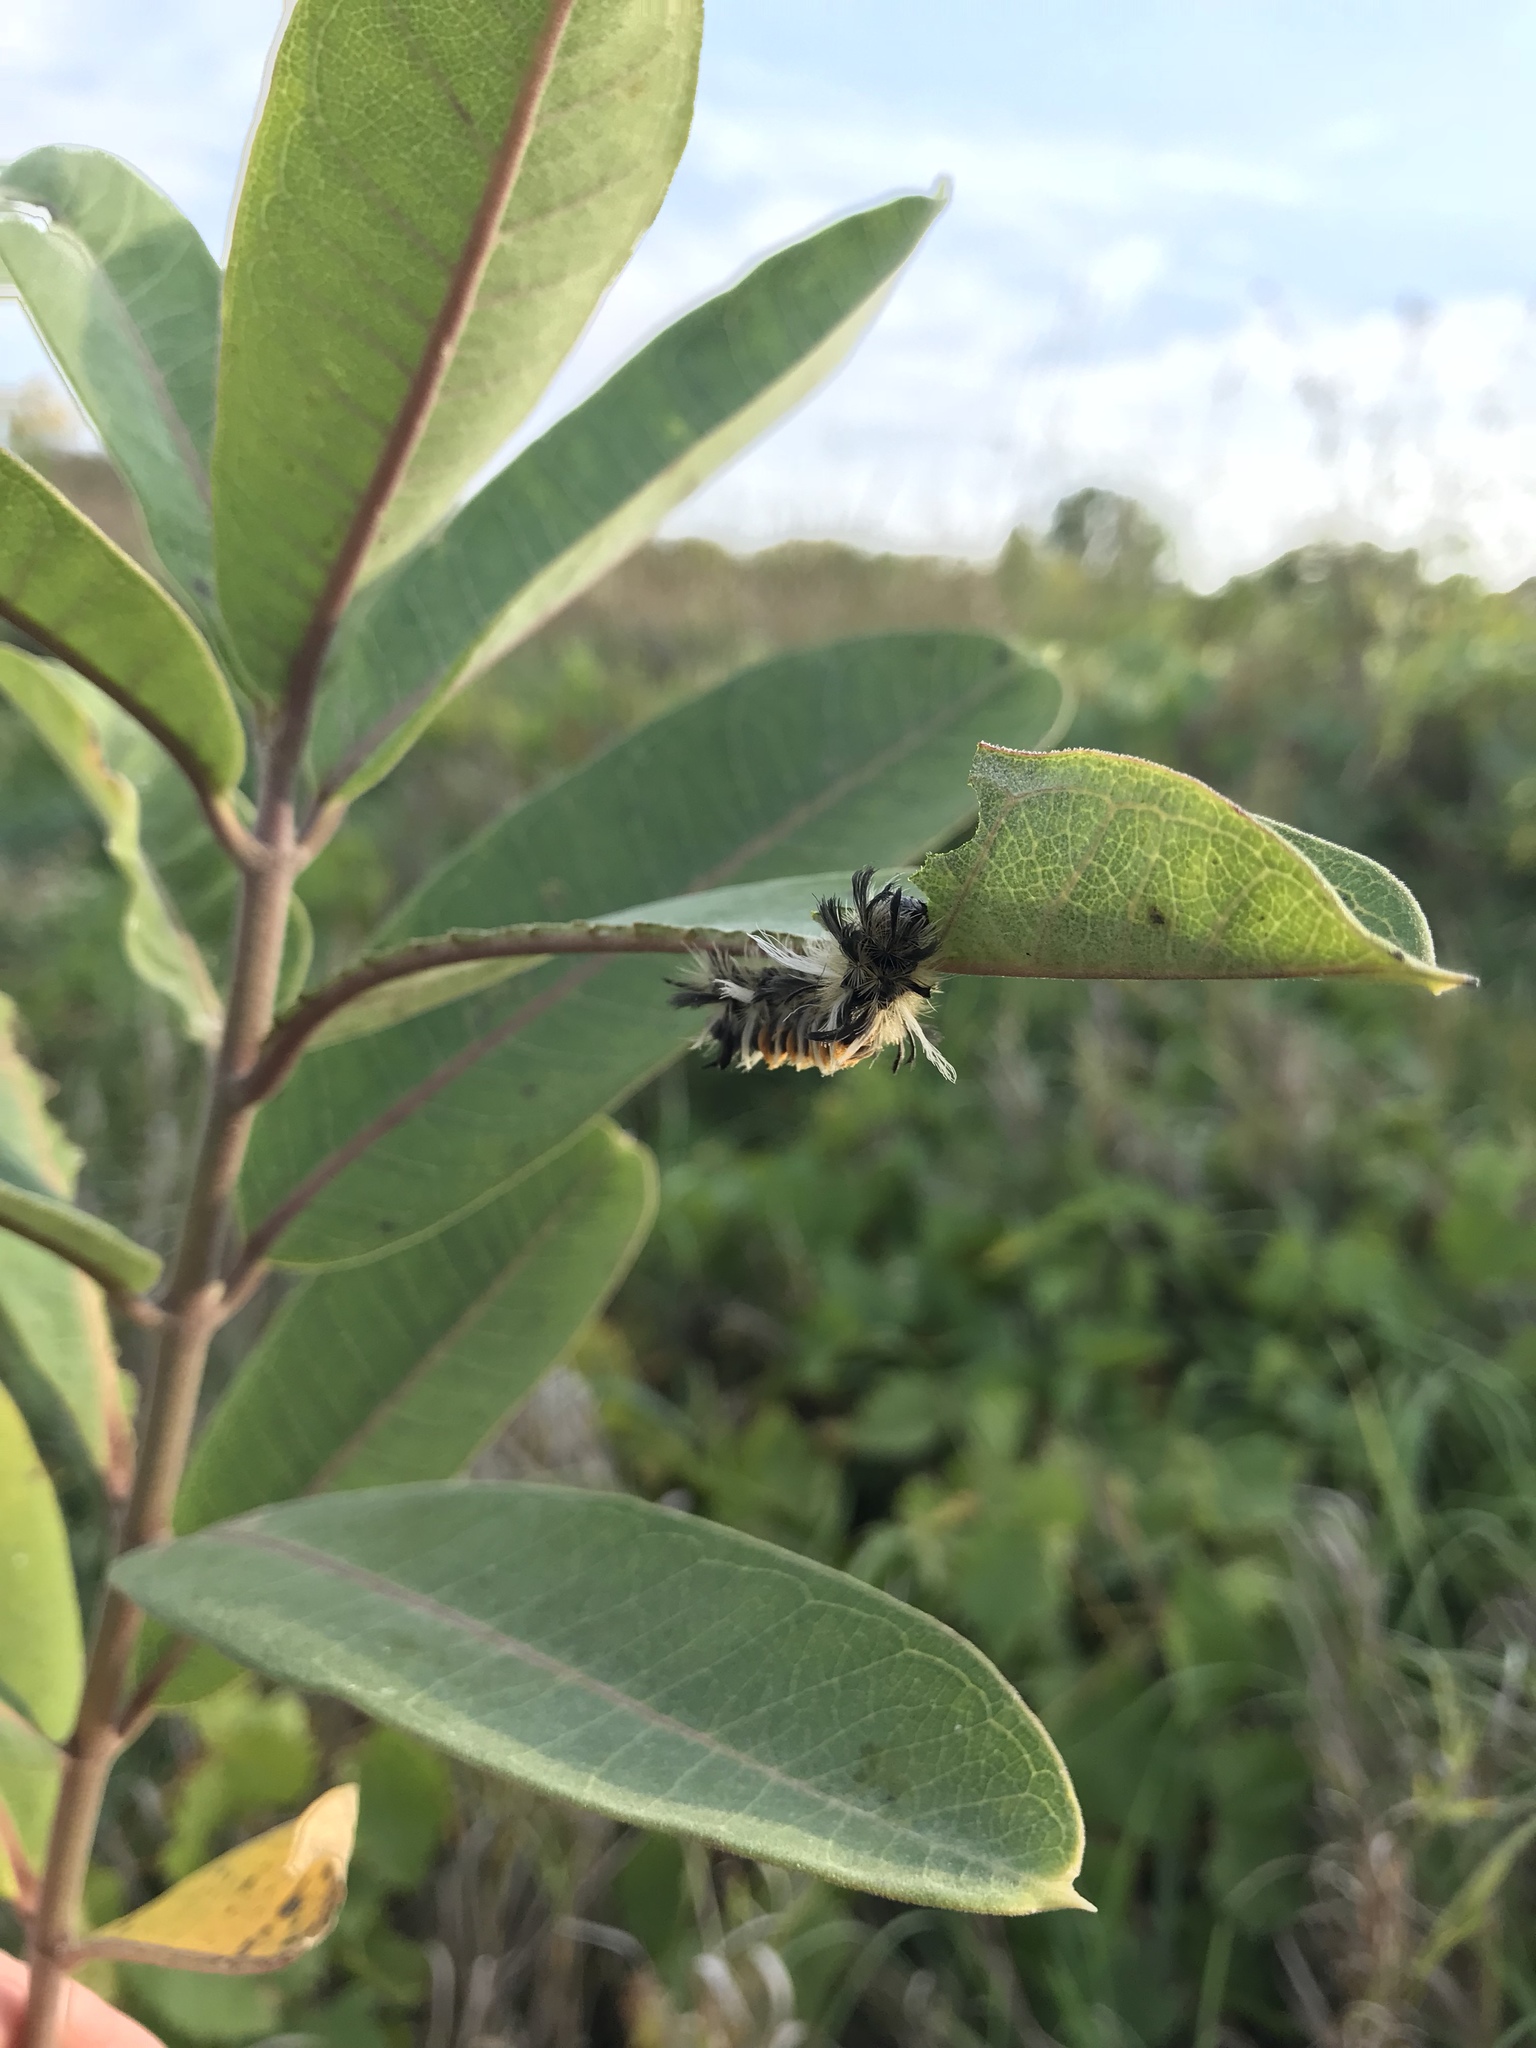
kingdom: Animalia
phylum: Arthropoda
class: Insecta
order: Lepidoptera
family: Erebidae
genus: Euchaetes
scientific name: Euchaetes egle
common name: Milkweed tussock moth
